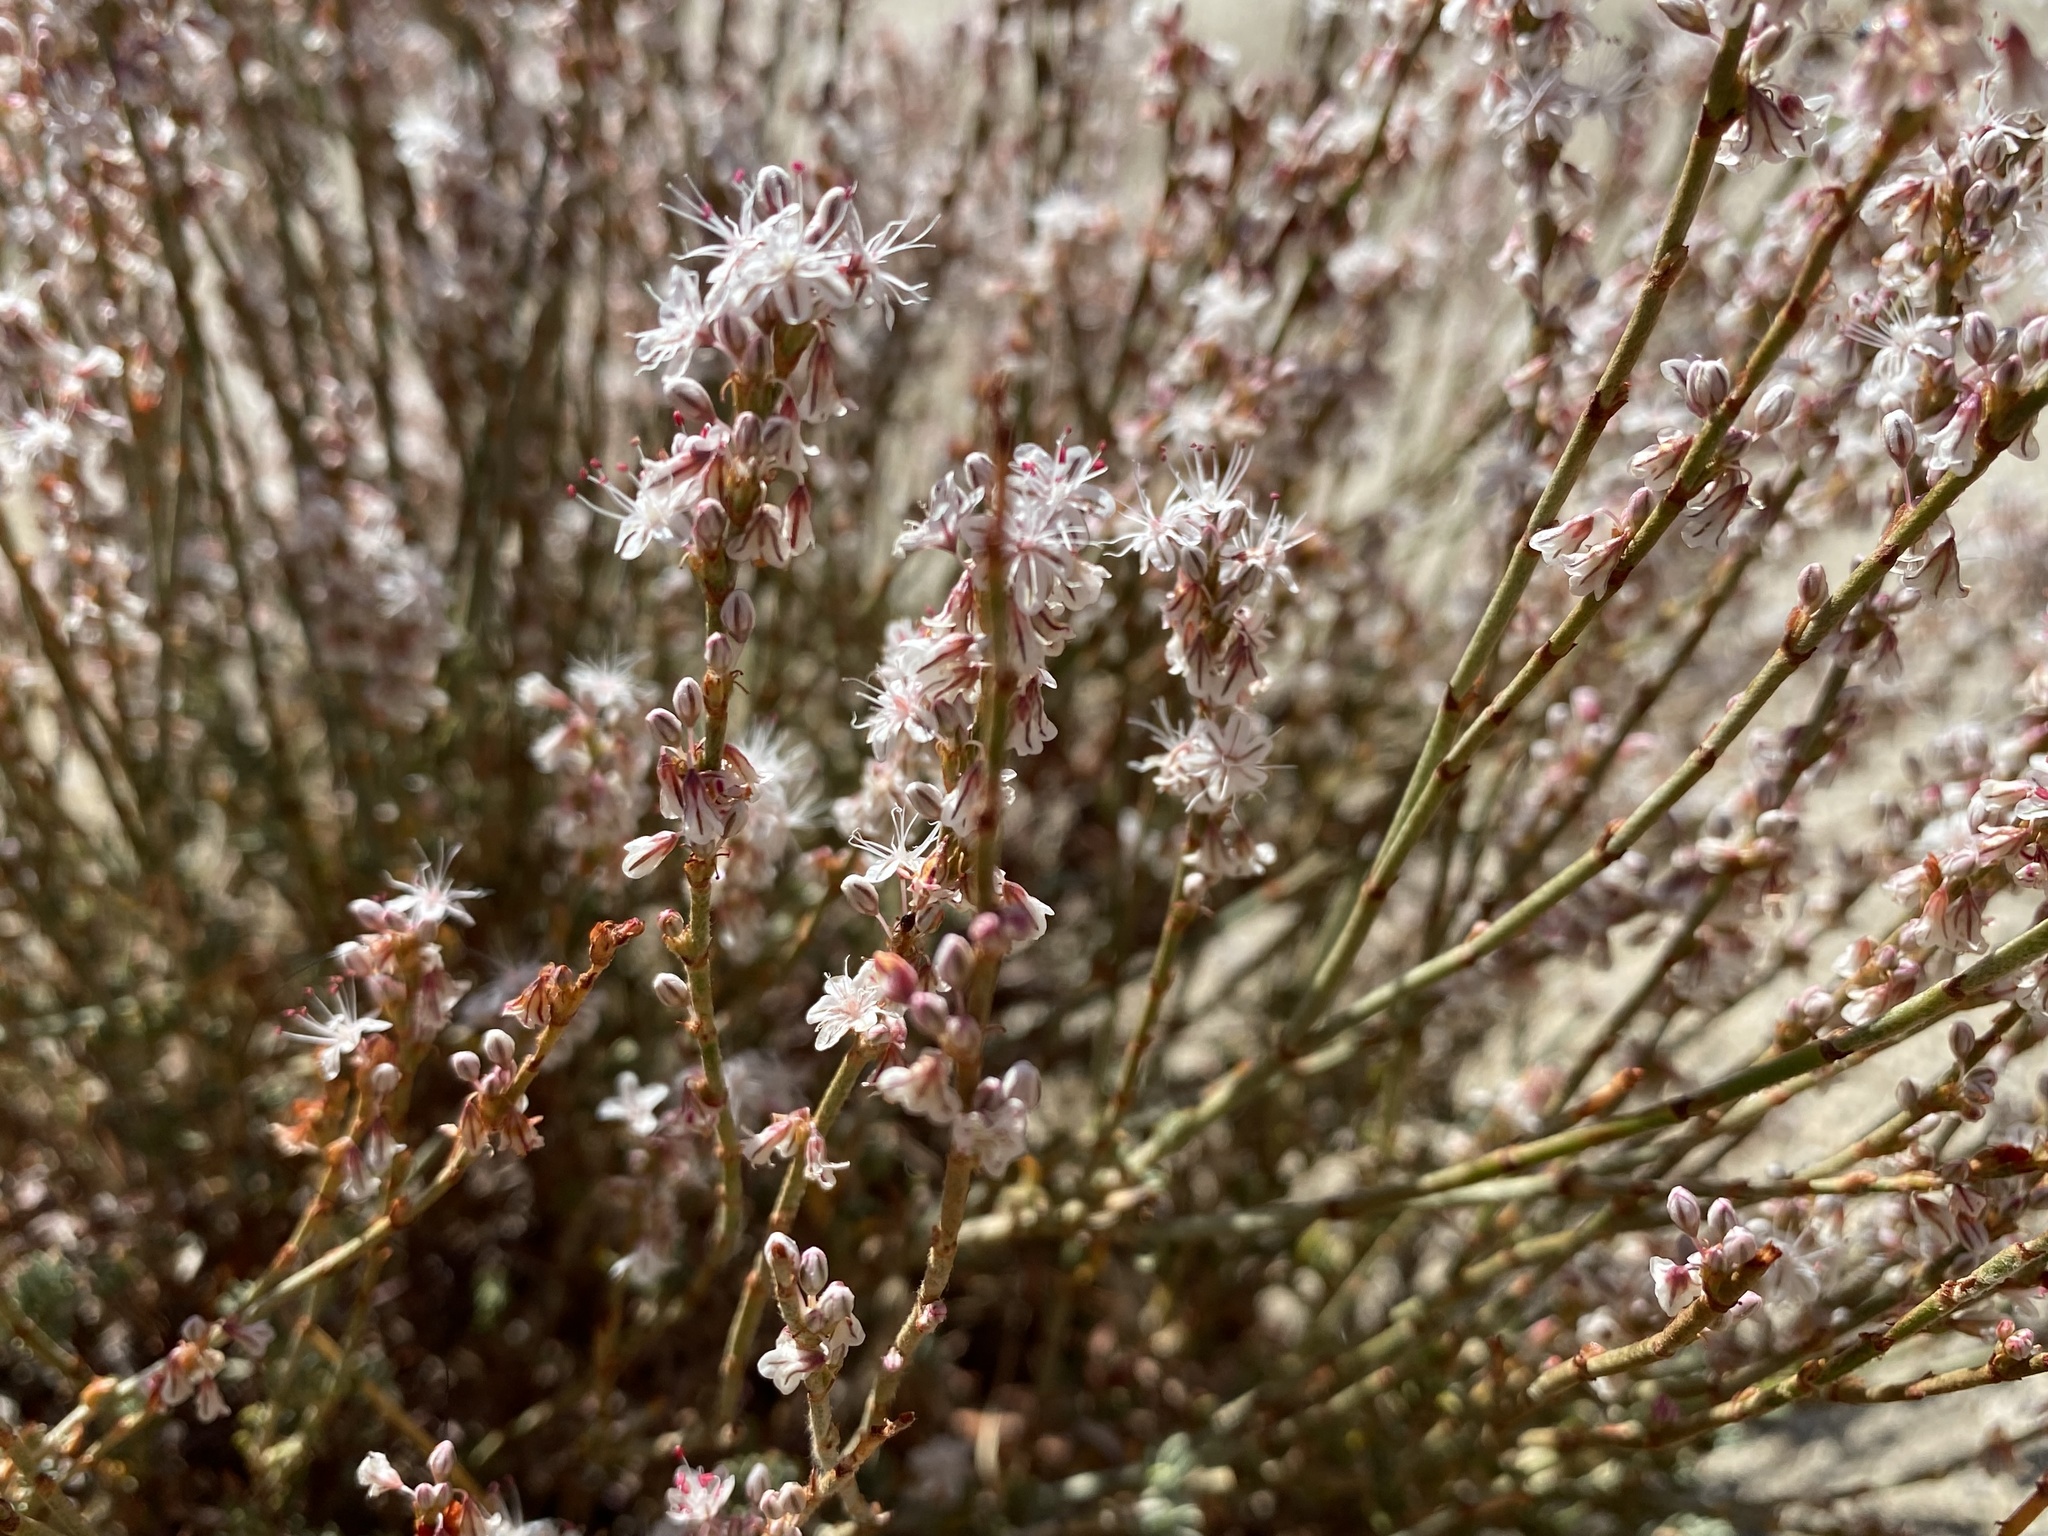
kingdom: Plantae
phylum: Tracheophyta
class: Magnoliopsida
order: Caryophyllales
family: Polygonaceae
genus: Eriogonum
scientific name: Eriogonum wrightii
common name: Bastard-sage
